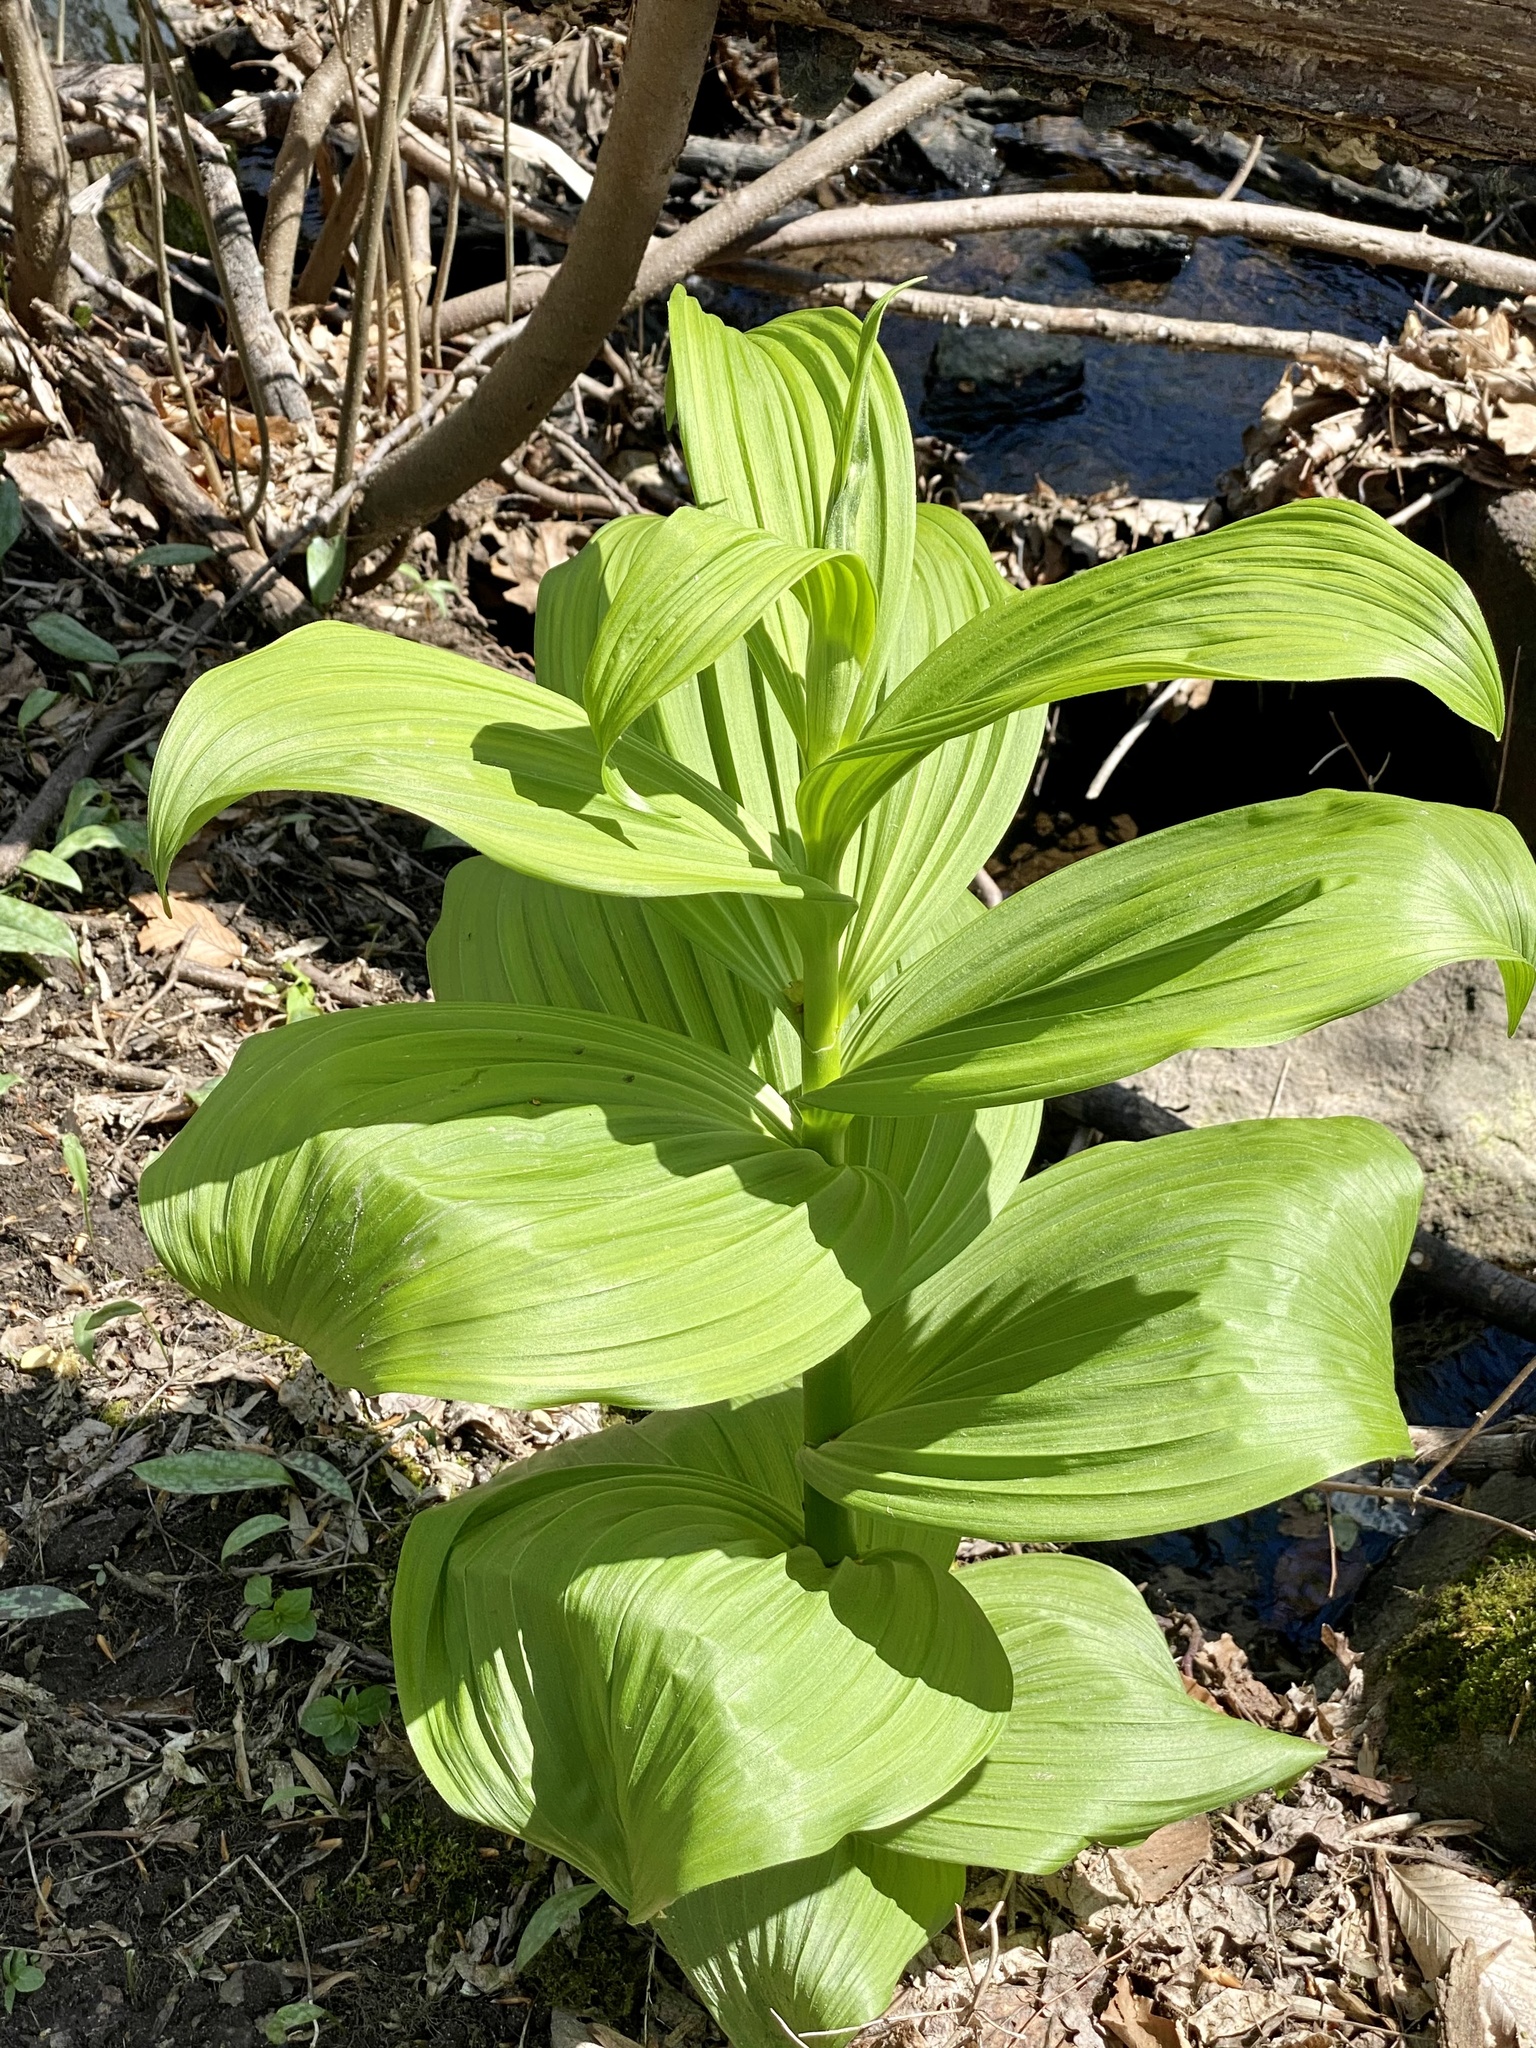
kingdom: Plantae
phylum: Tracheophyta
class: Liliopsida
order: Liliales
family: Melanthiaceae
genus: Veratrum
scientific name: Veratrum viride
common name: American false hellebore
